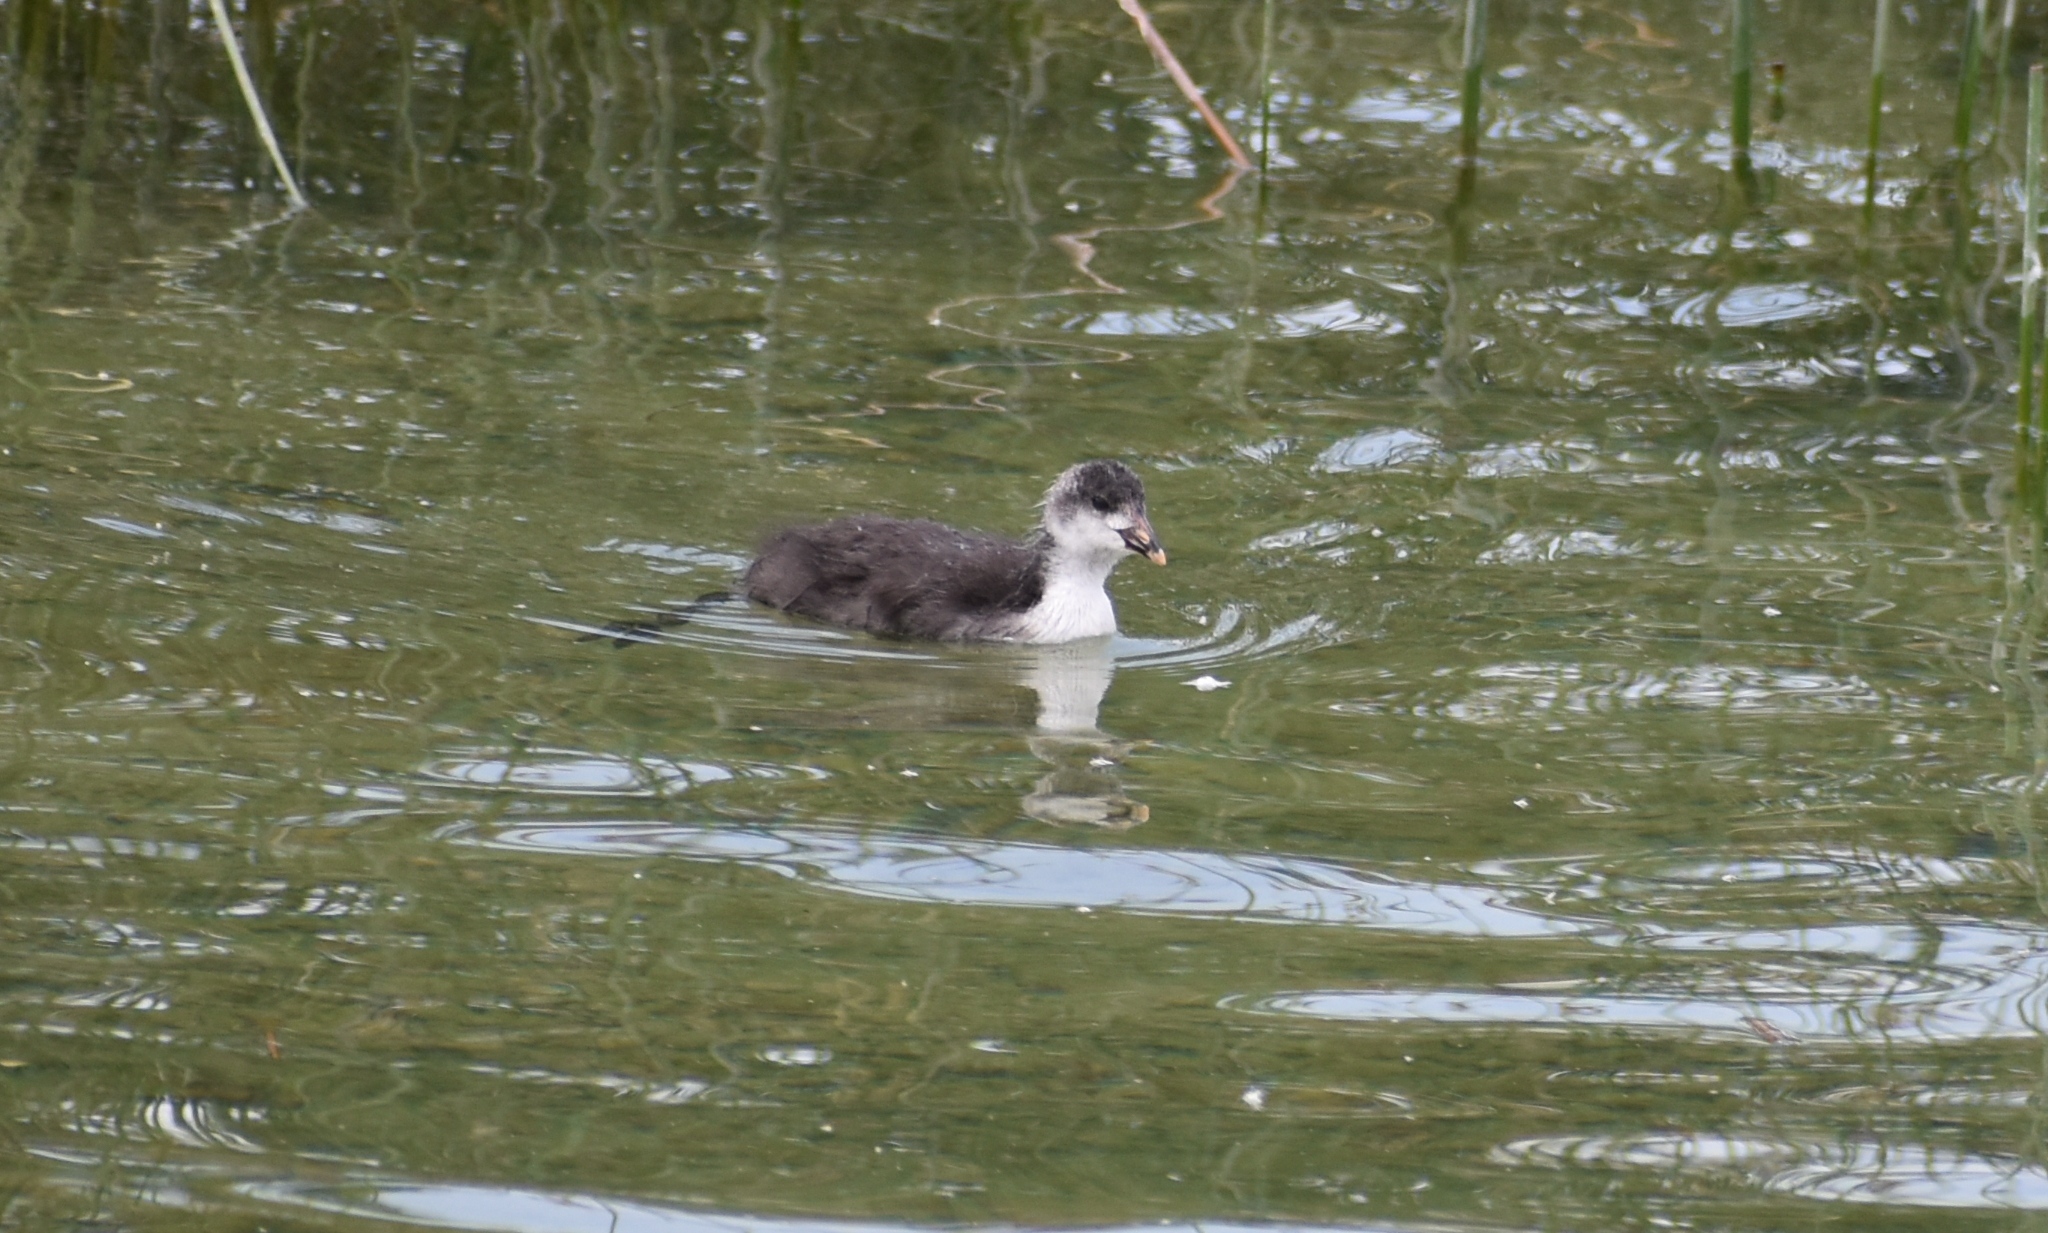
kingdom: Animalia
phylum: Chordata
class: Aves
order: Gruiformes
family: Rallidae
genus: Fulica
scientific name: Fulica atra
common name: Eurasian coot
